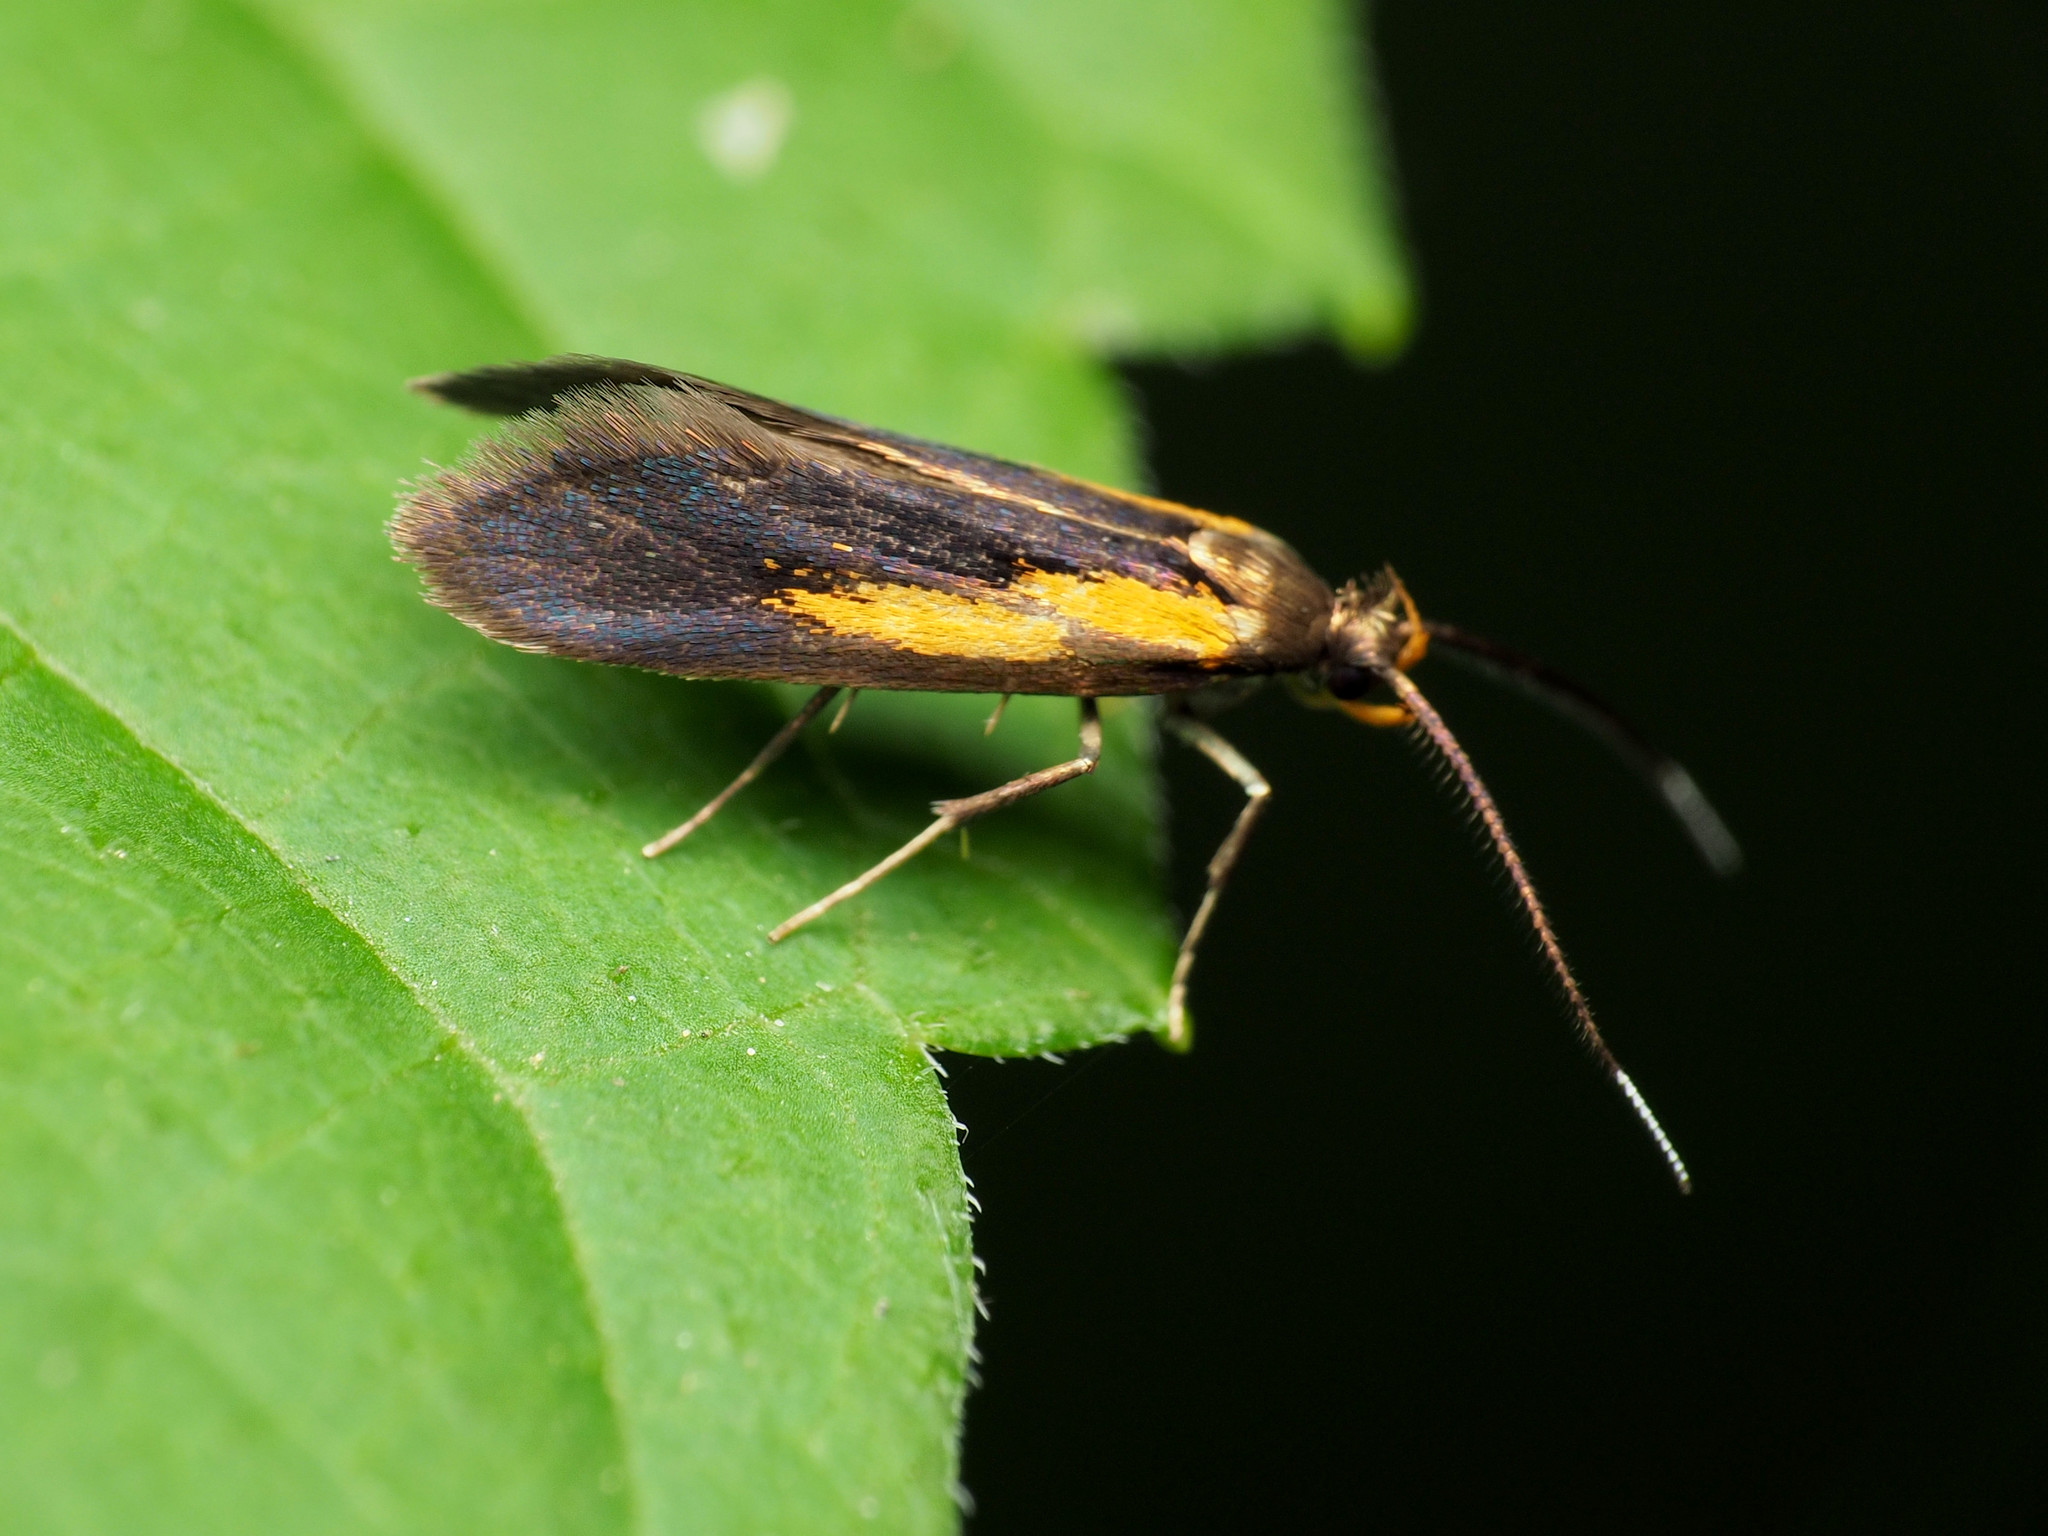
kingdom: Animalia
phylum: Arthropoda
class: Insecta
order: Lepidoptera
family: Oecophoridae
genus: Mathildana
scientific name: Mathildana newmanella
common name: Newman's mathildana moth
